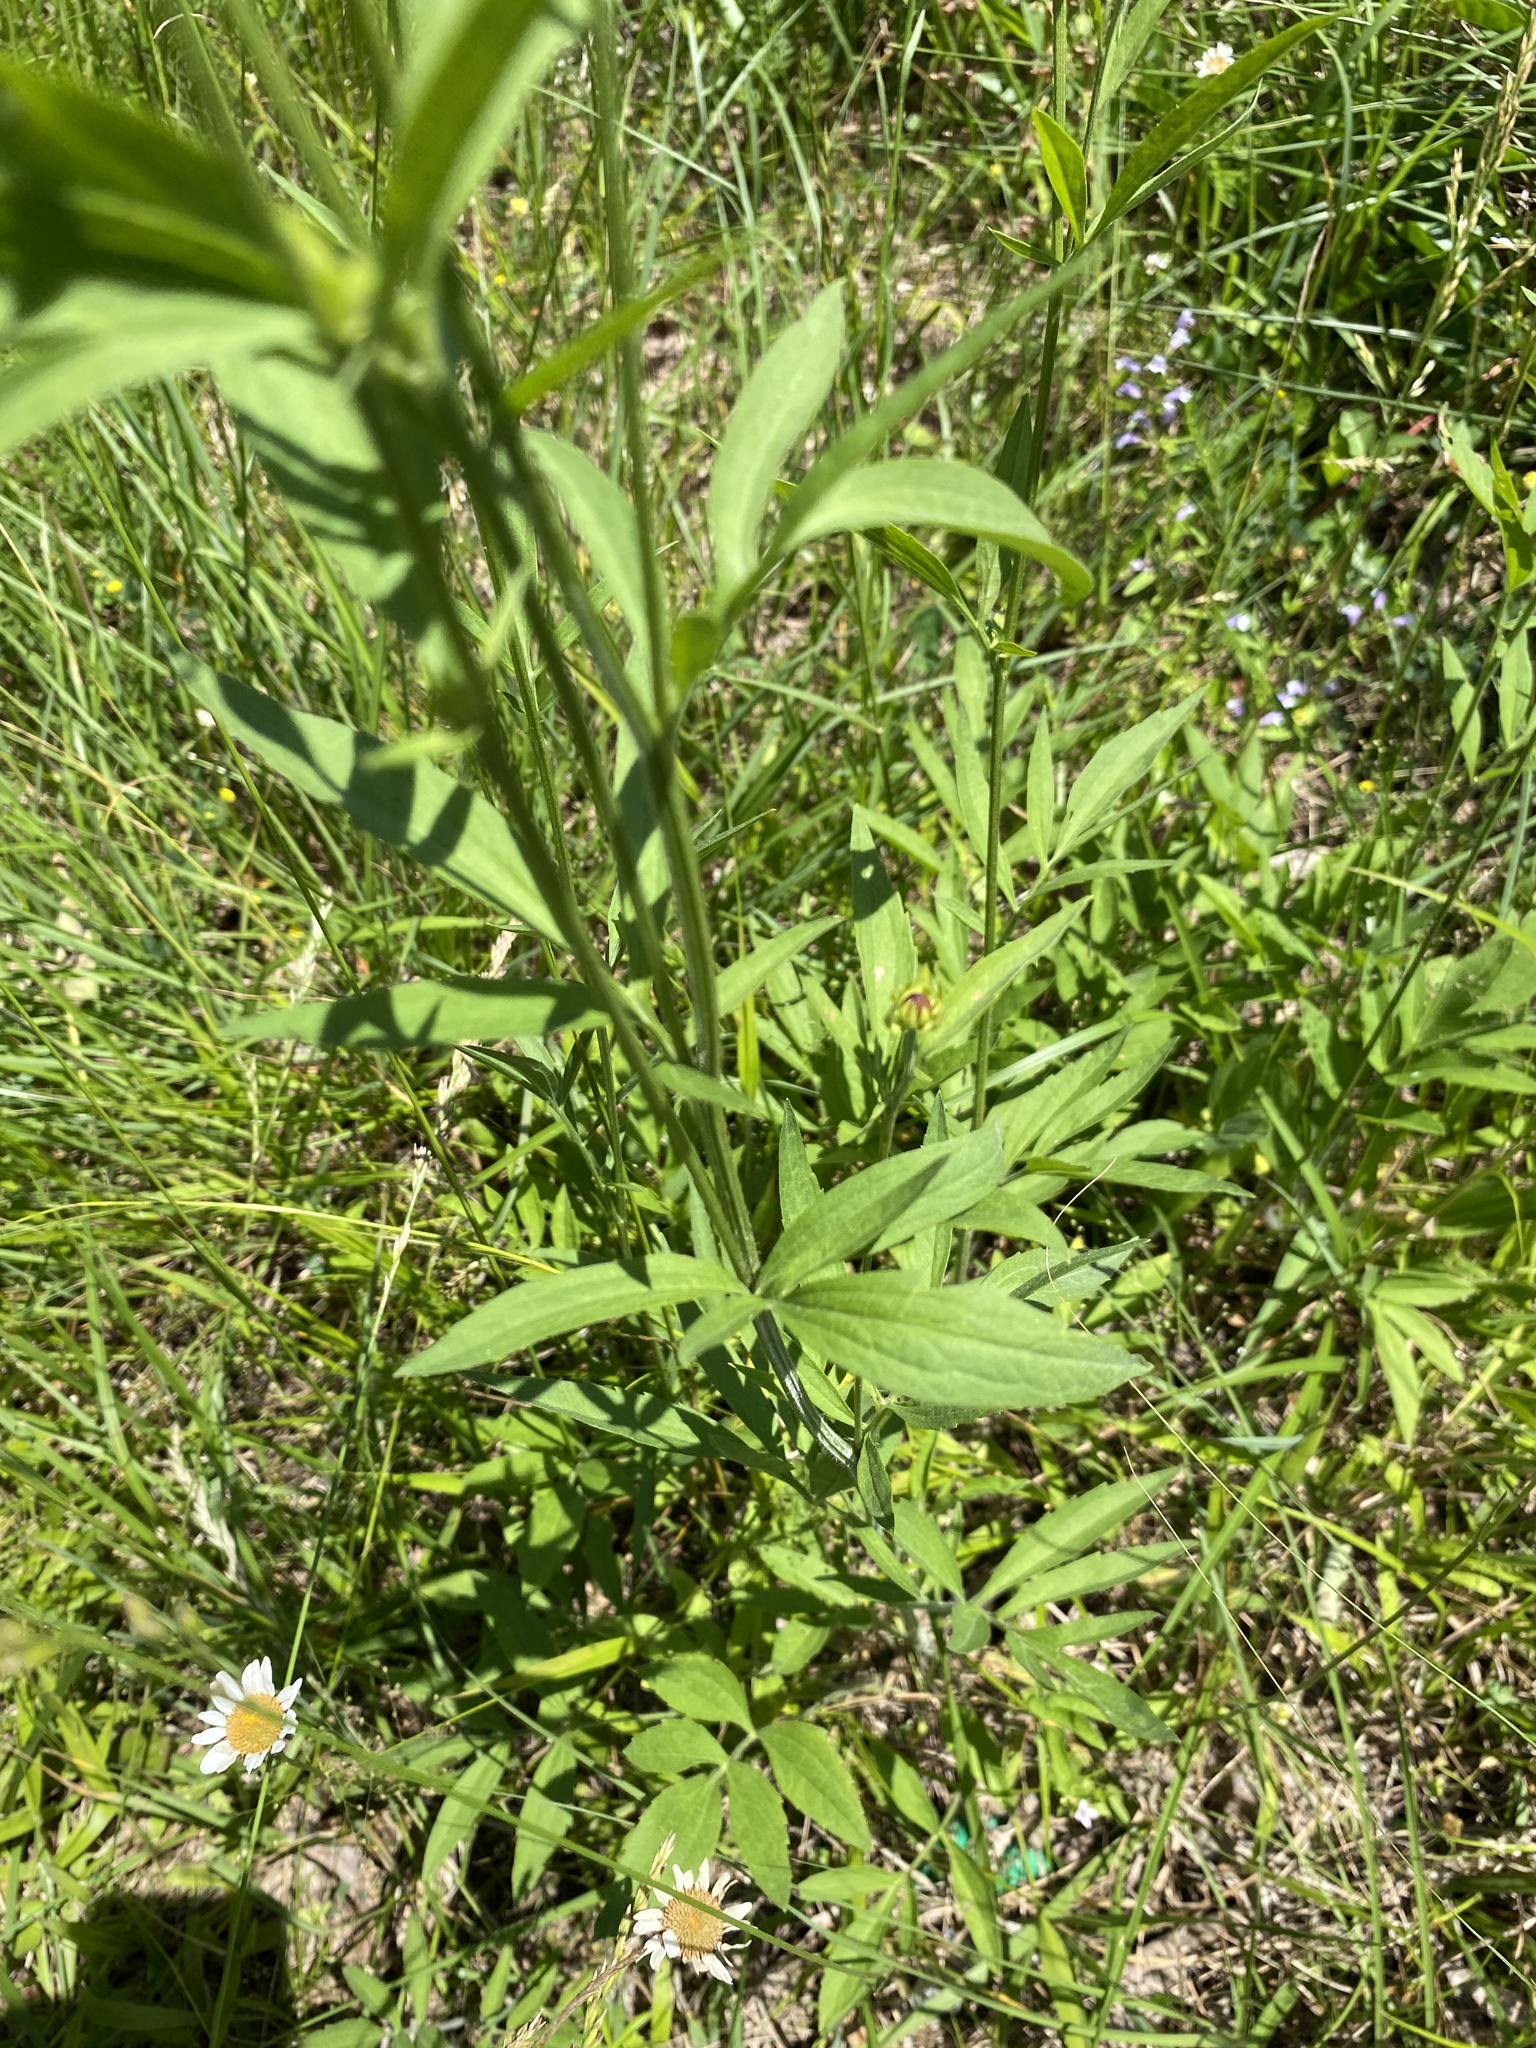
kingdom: Plantae
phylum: Tracheophyta
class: Magnoliopsida
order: Asterales
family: Asteraceae
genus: Ratibida
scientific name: Ratibida pinnata
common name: Drooping prairie-coneflower
